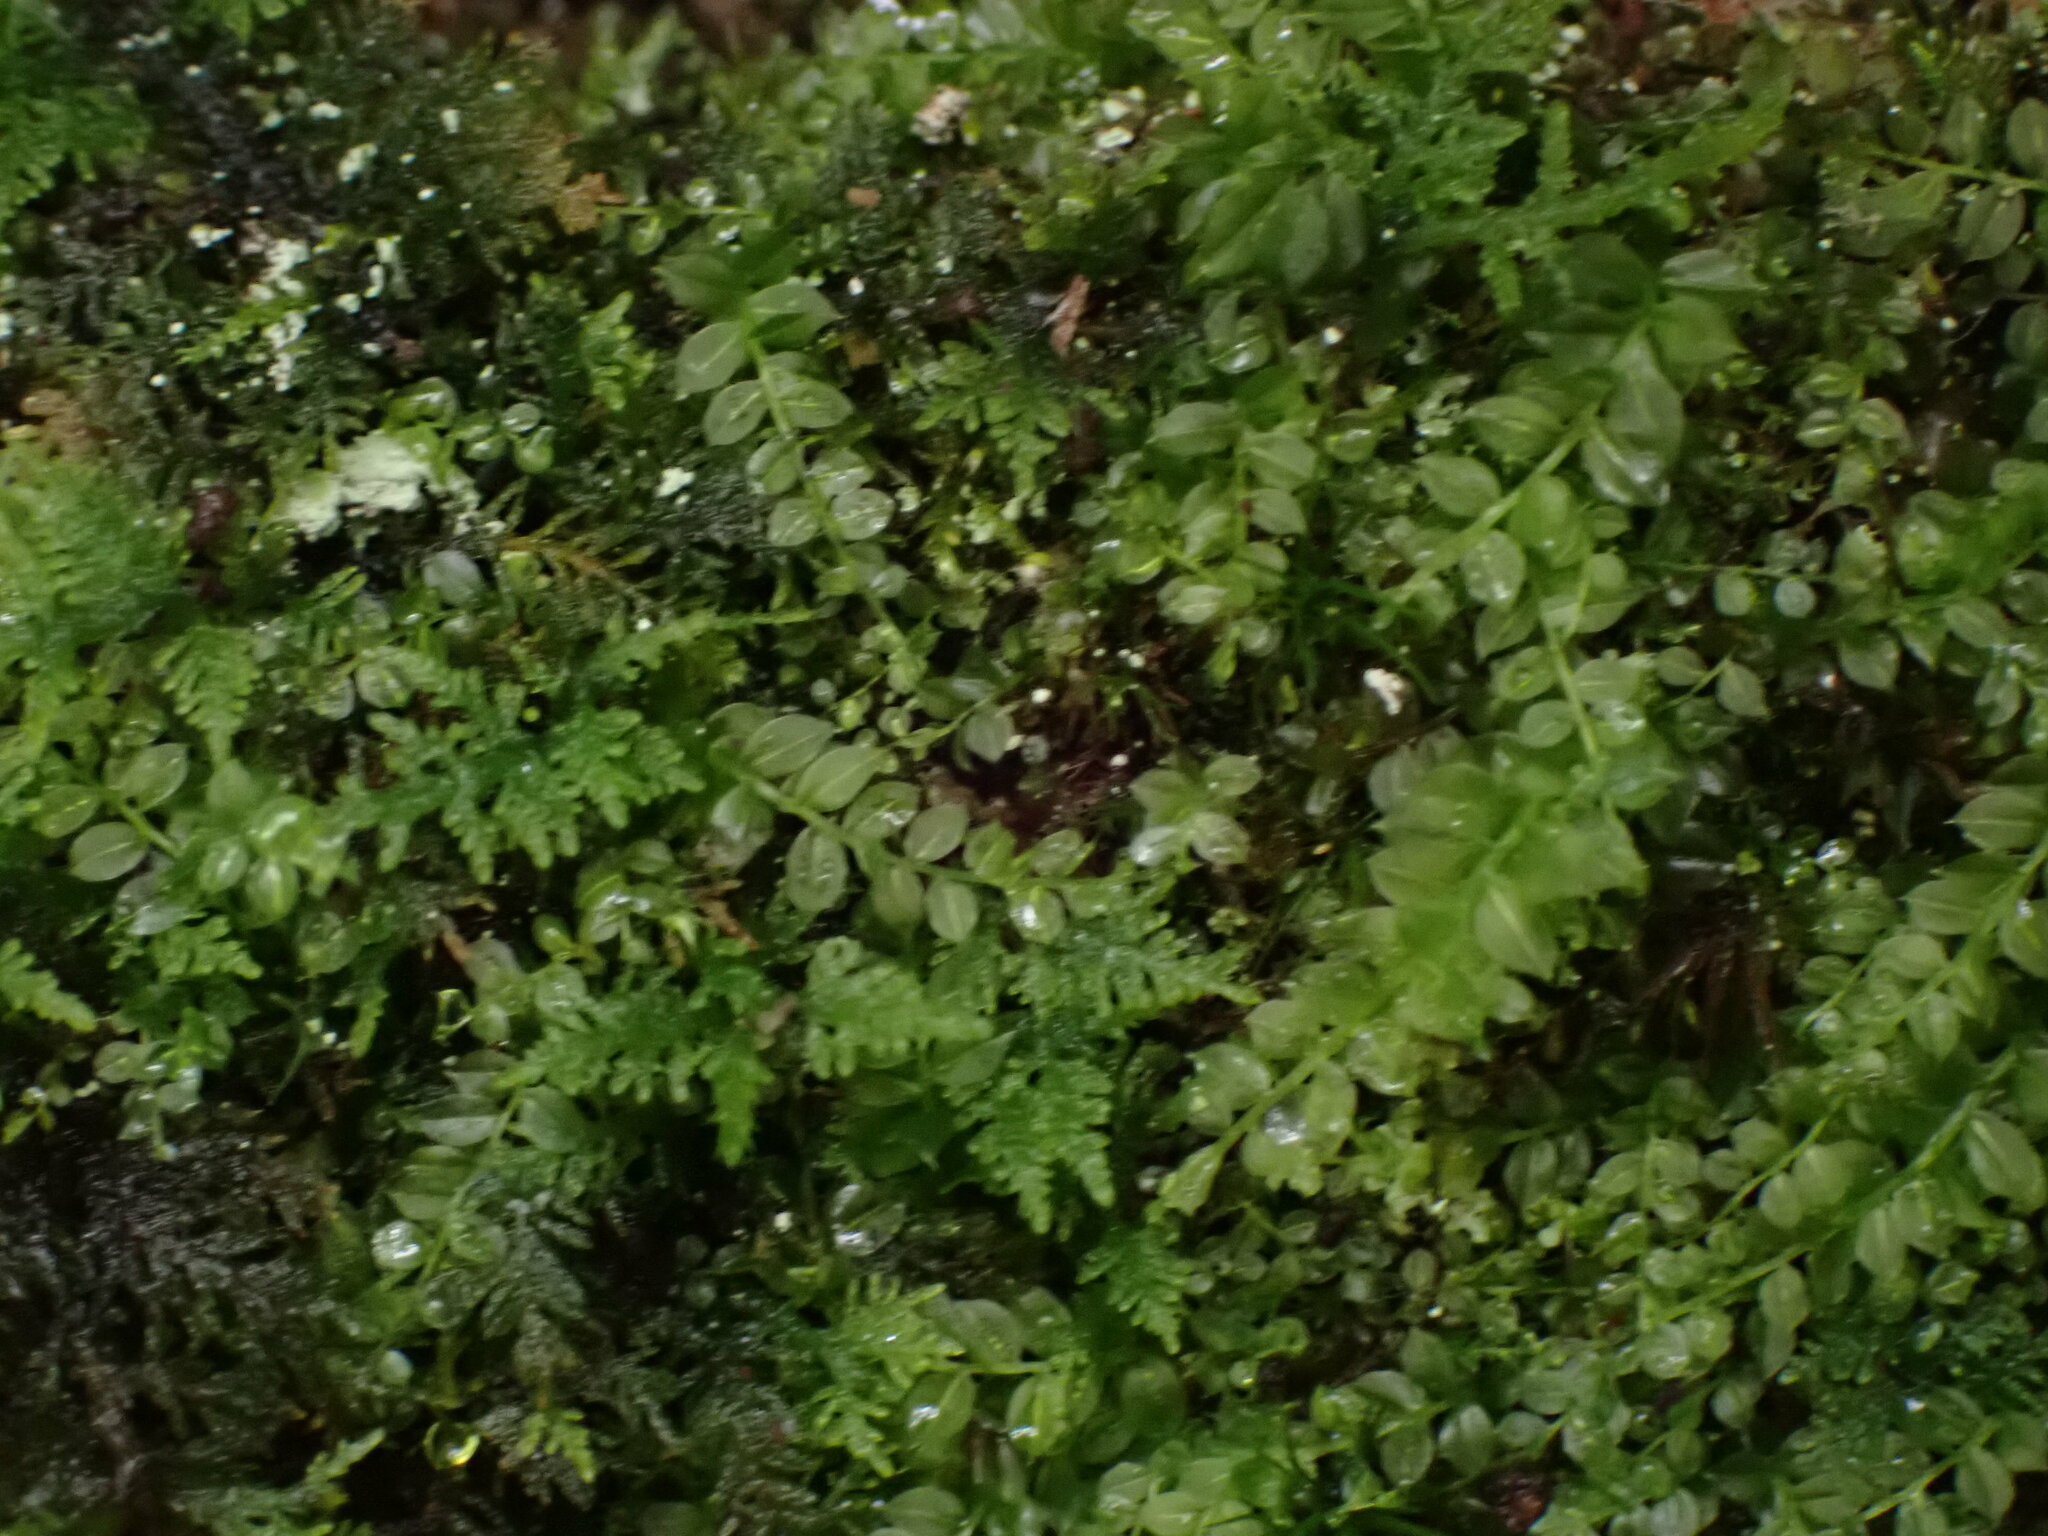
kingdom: Plantae
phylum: Bryophyta
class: Bryopsida
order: Bryales
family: Mniaceae
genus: Plagiomnium
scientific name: Plagiomnium cuspidatum
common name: Woodsy leafy moss
